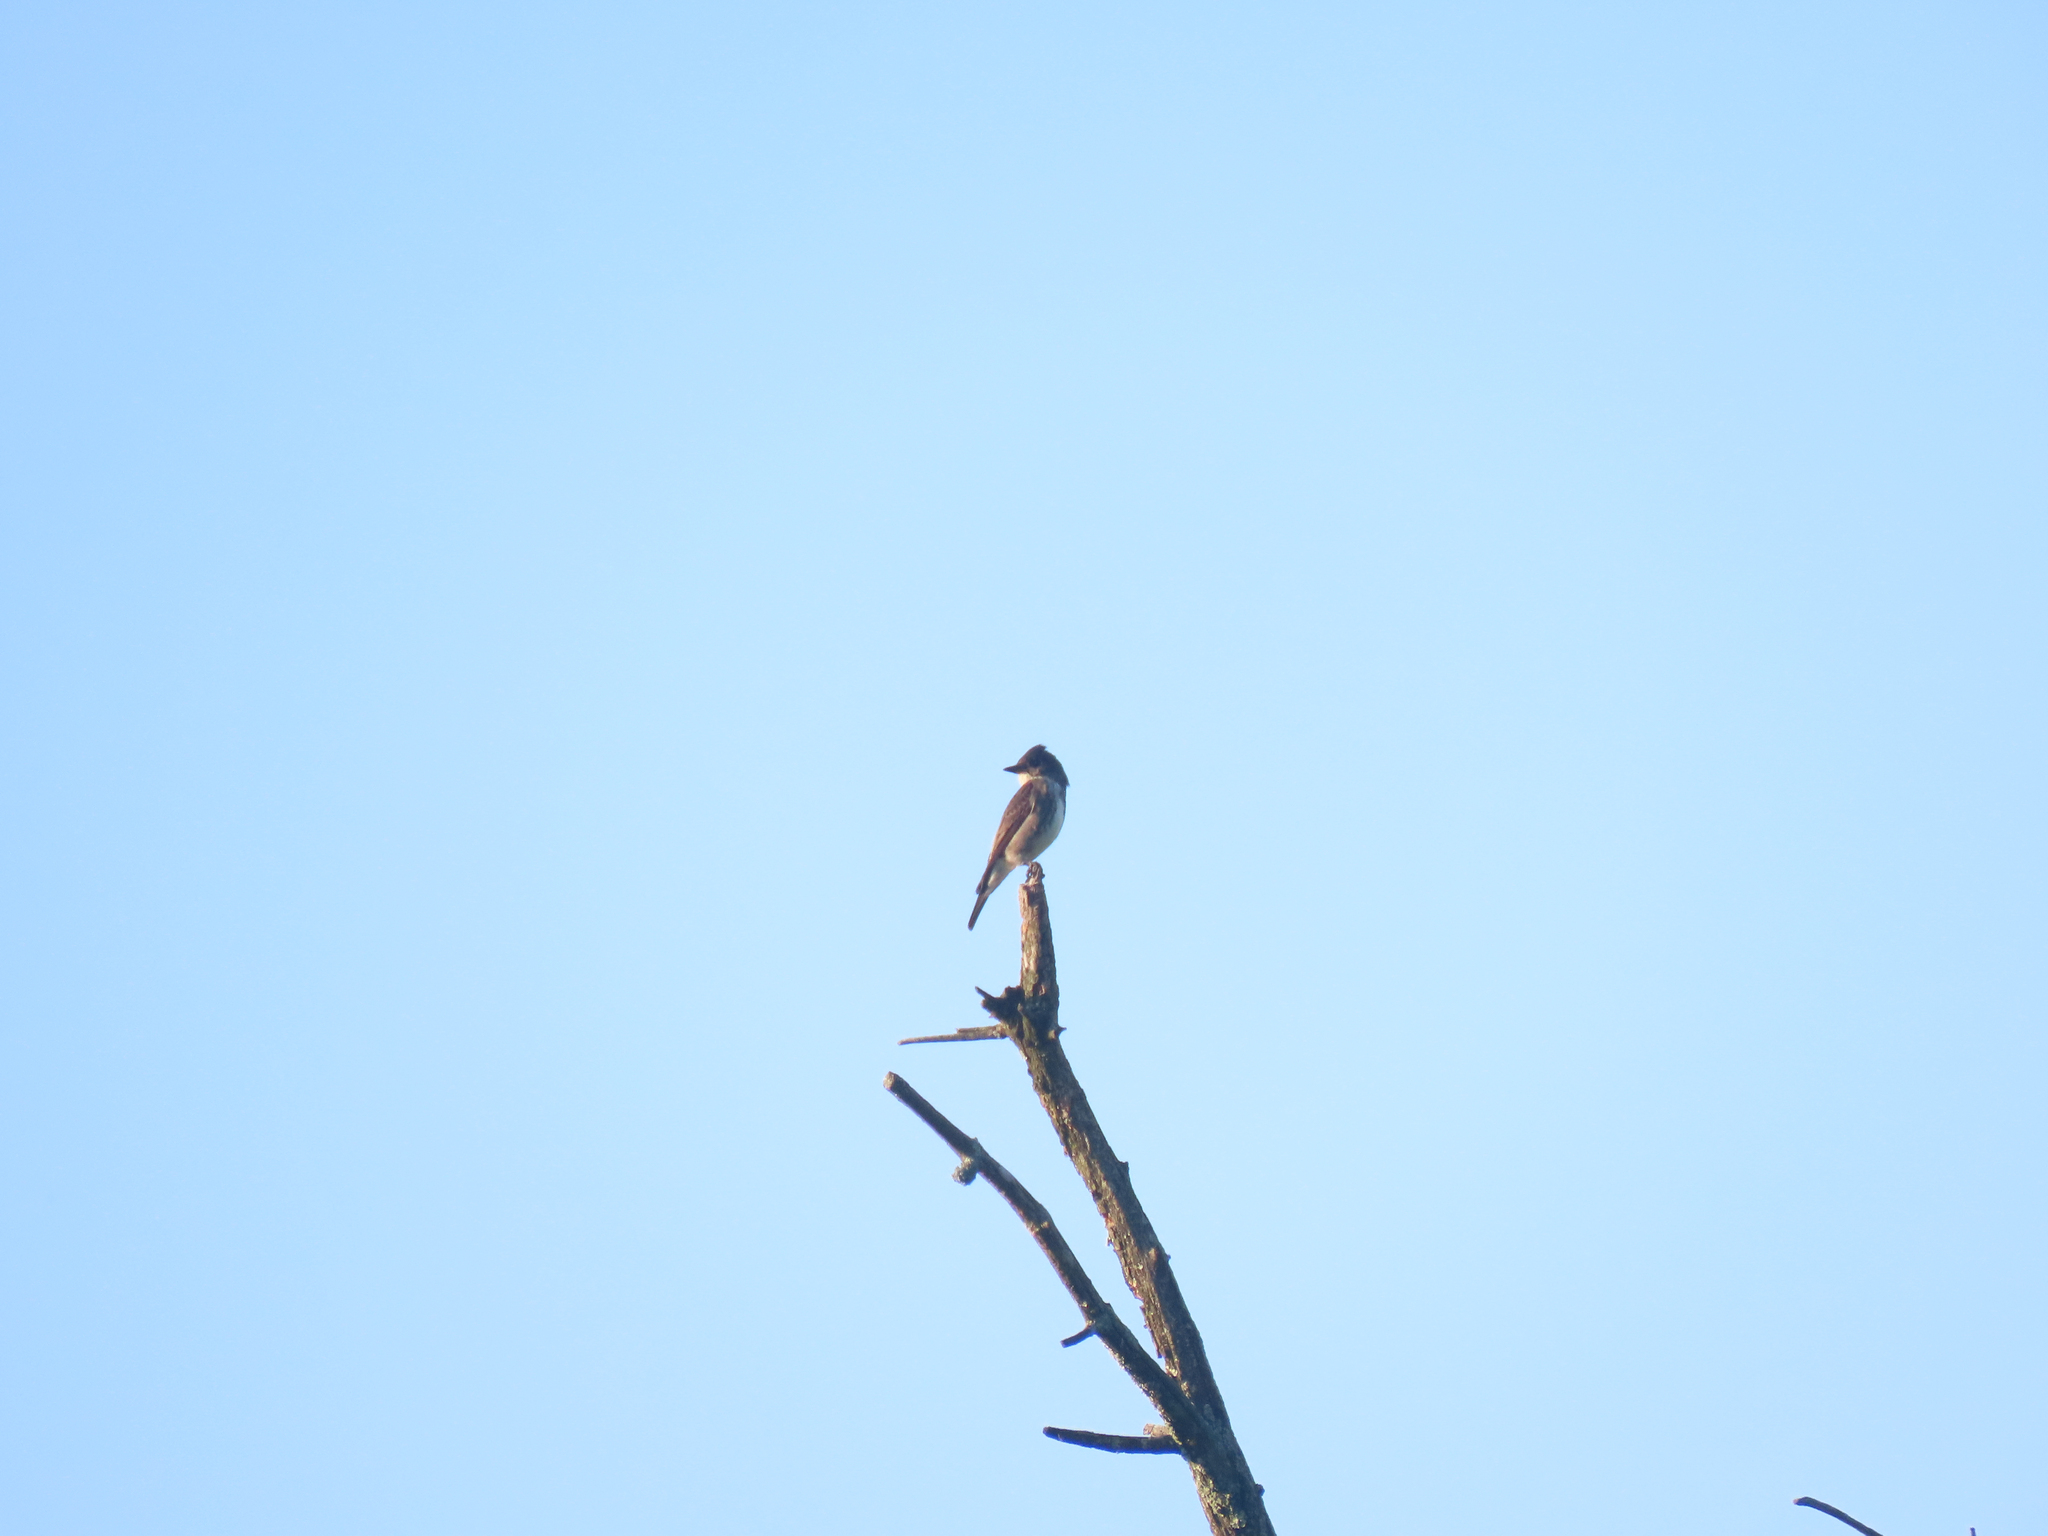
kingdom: Animalia
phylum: Chordata
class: Aves
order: Passeriformes
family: Tyrannidae
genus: Contopus
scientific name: Contopus cooperi
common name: Olive-sided flycatcher
